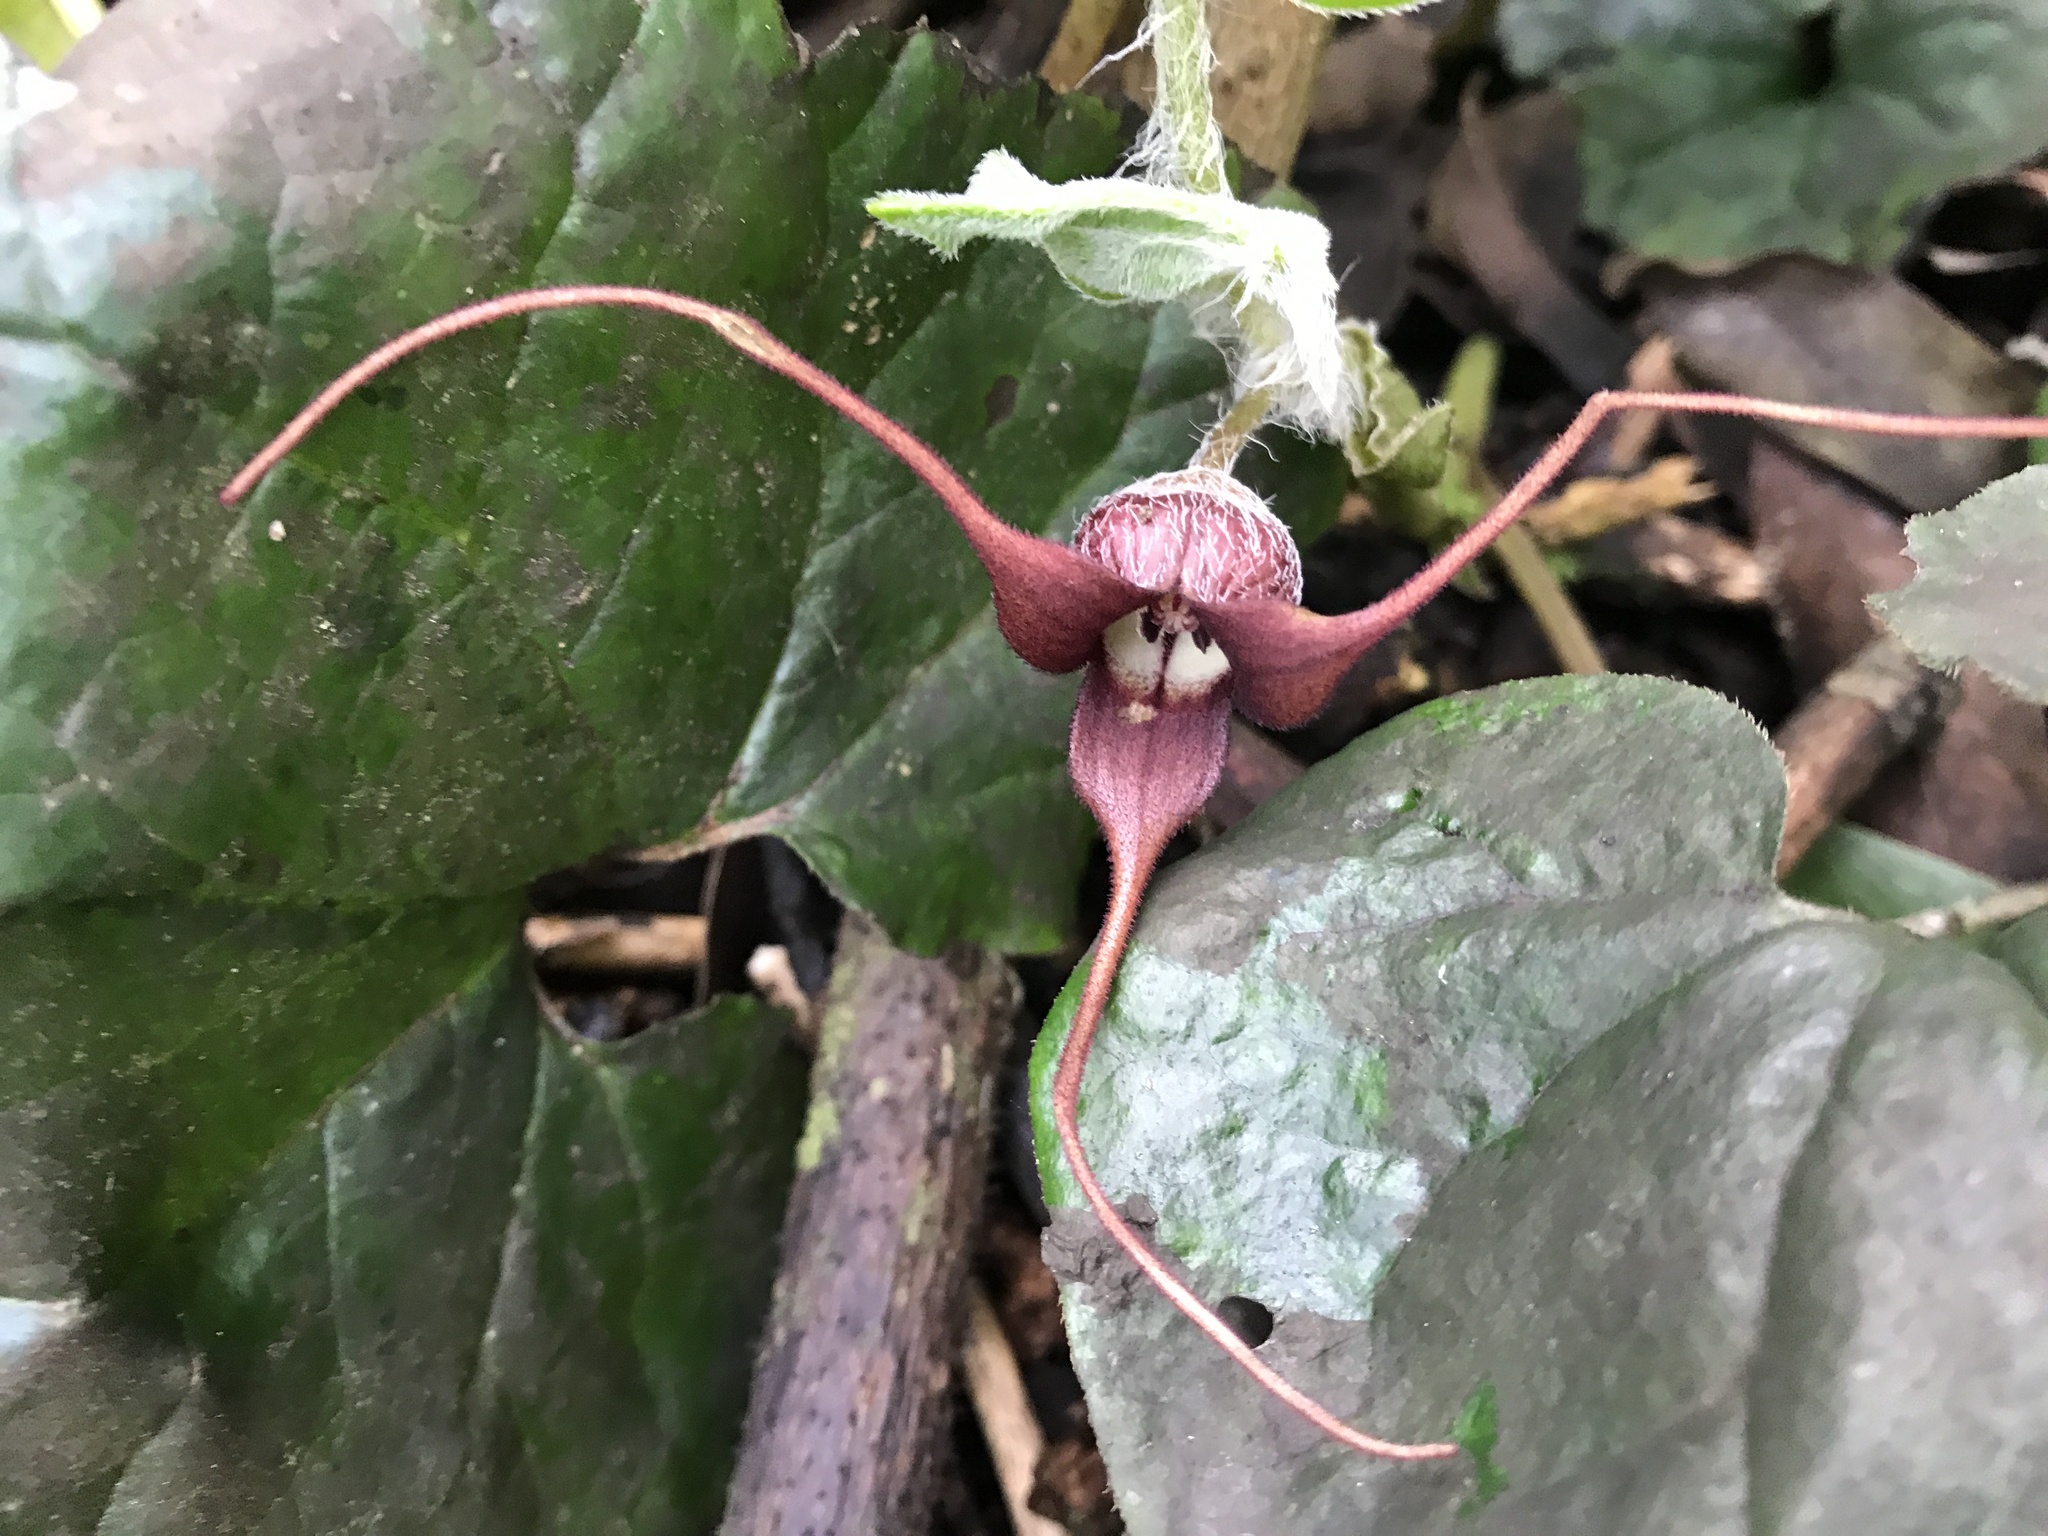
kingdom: Plantae
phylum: Tracheophyta
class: Magnoliopsida
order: Piperales
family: Aristolochiaceae
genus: Asarum
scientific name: Asarum caudatum
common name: Wild ginger
